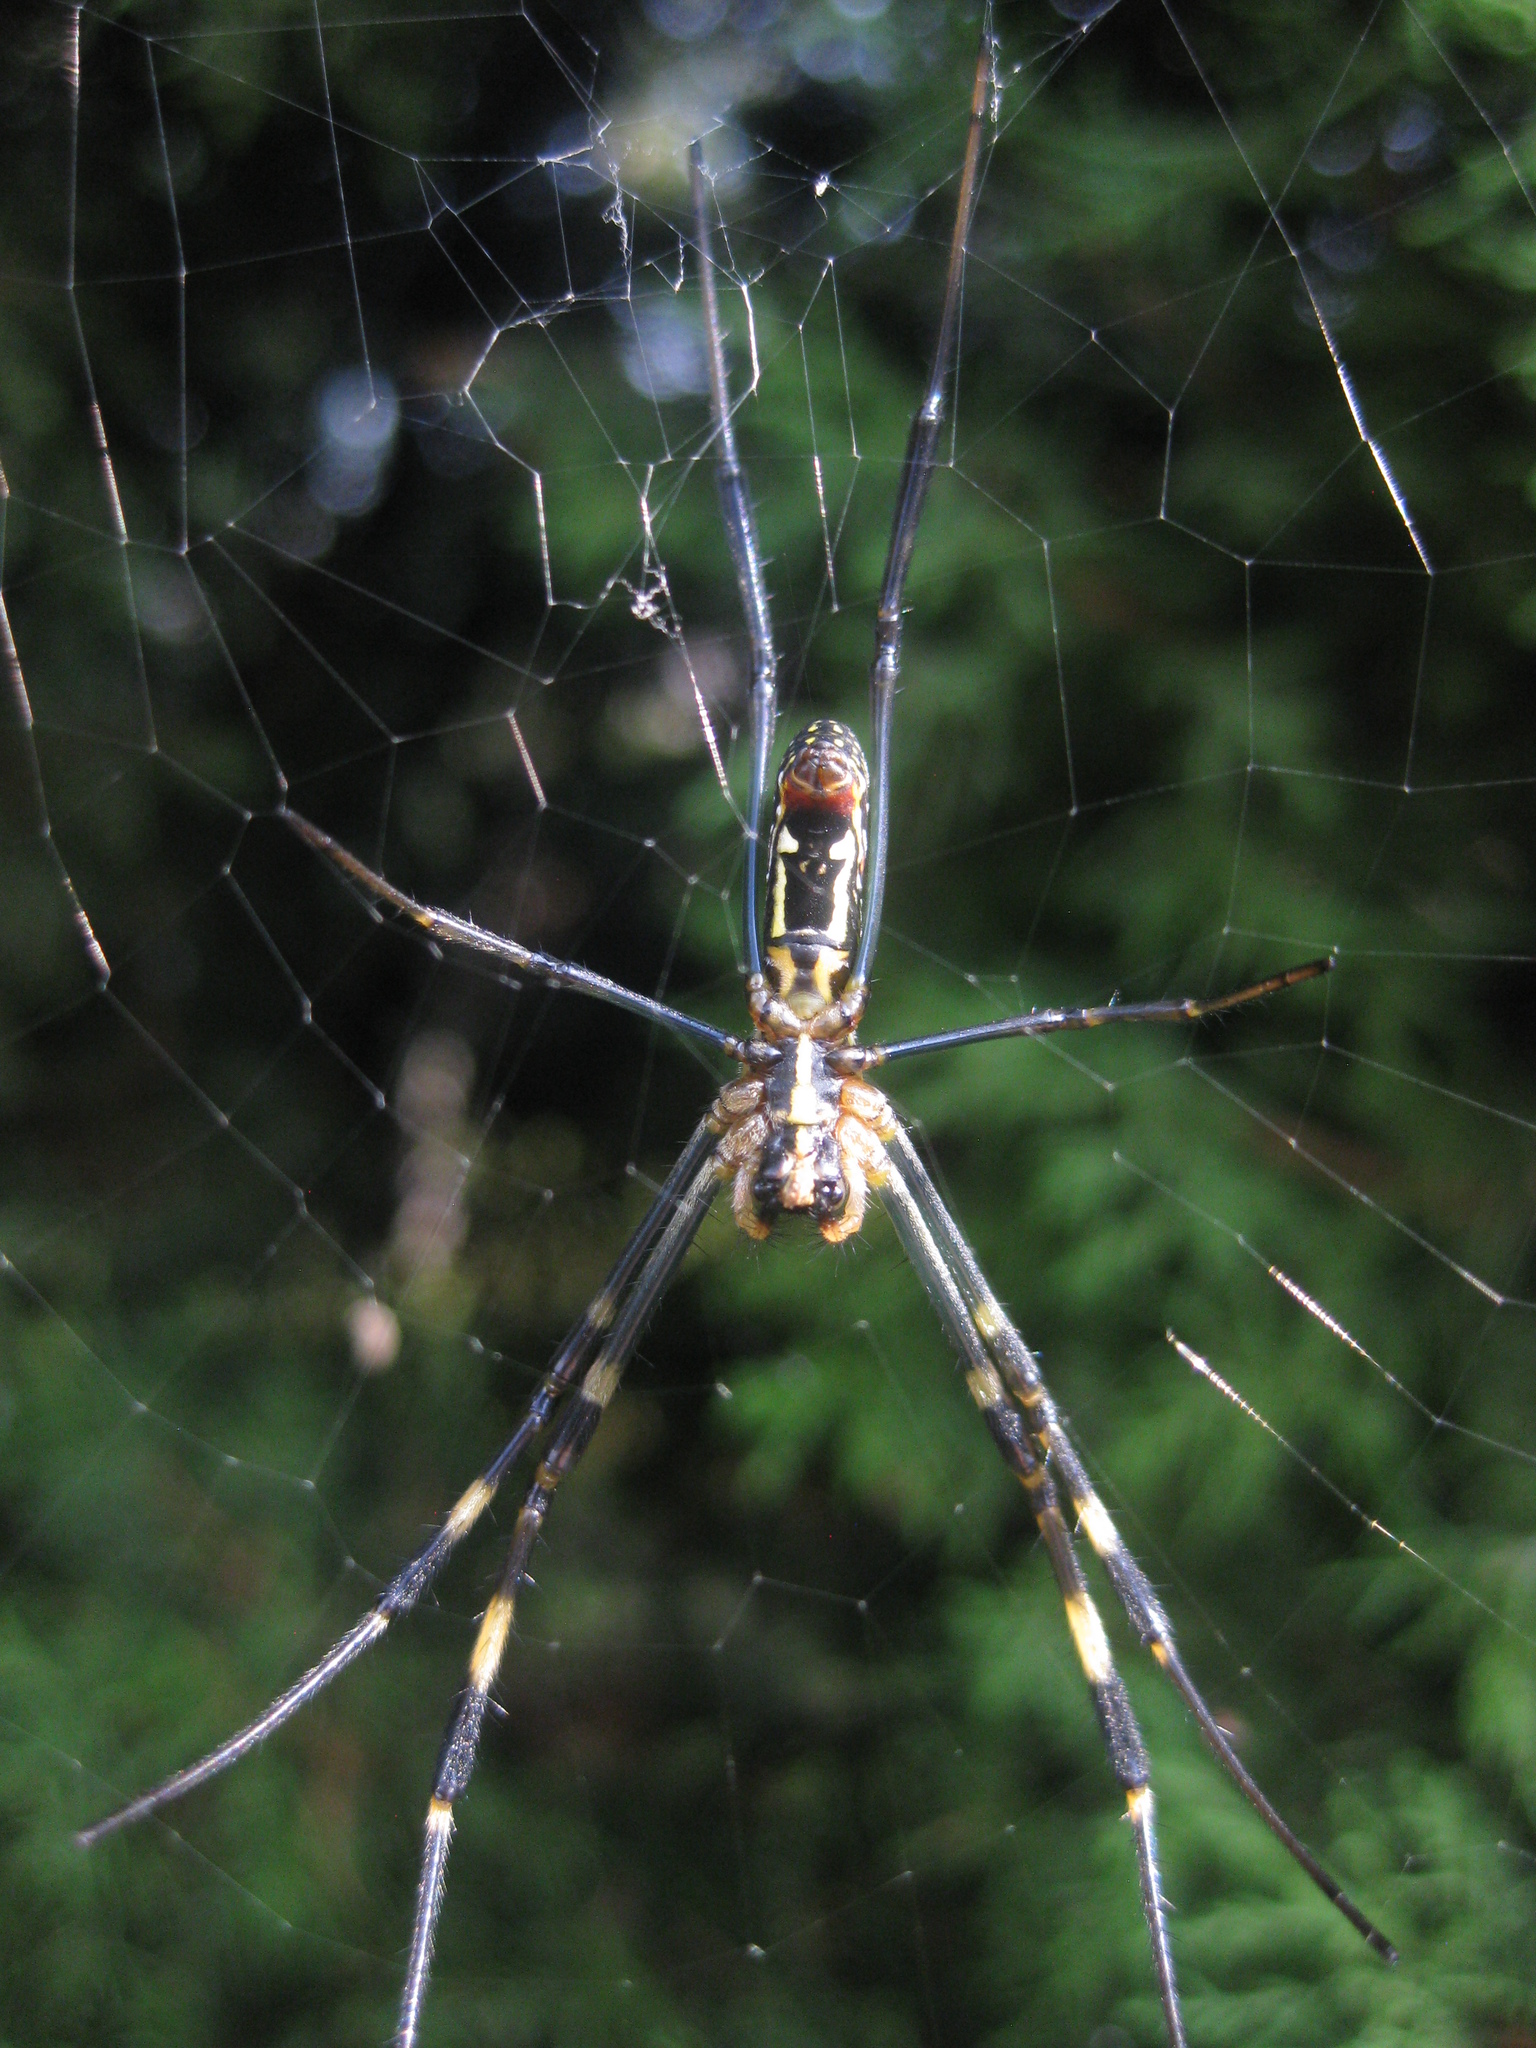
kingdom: Animalia
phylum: Arthropoda
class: Arachnida
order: Araneae
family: Araneidae
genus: Trichonephila
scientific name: Trichonephila clavata
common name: Jorō spider
